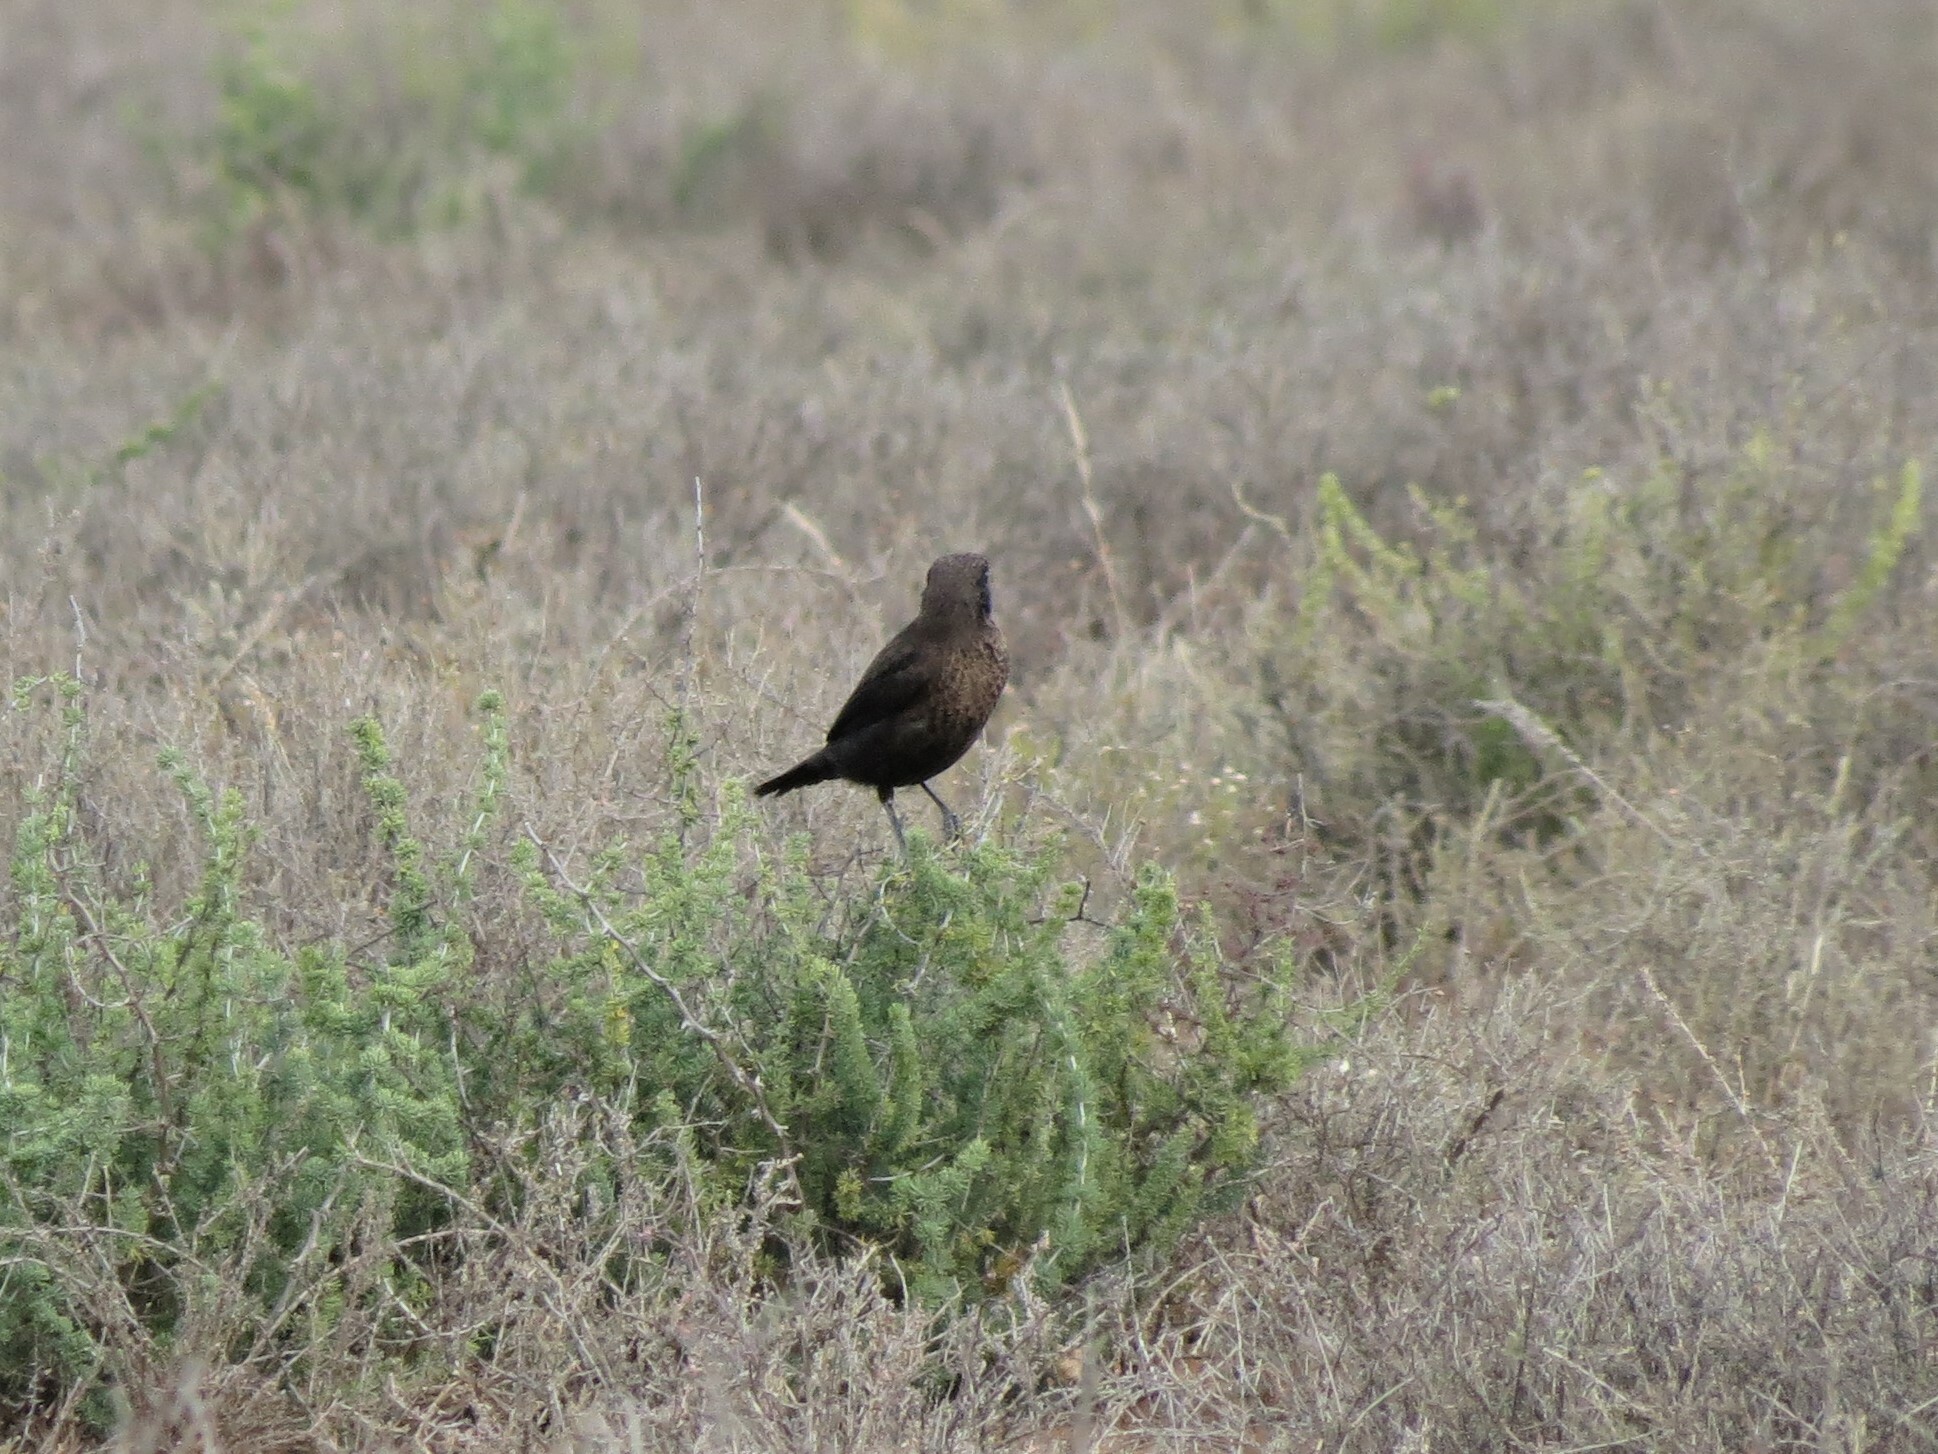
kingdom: Animalia
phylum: Chordata
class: Aves
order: Passeriformes
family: Muscicapidae
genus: Myrmecocichla
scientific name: Myrmecocichla formicivora
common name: Ant-eating chat
